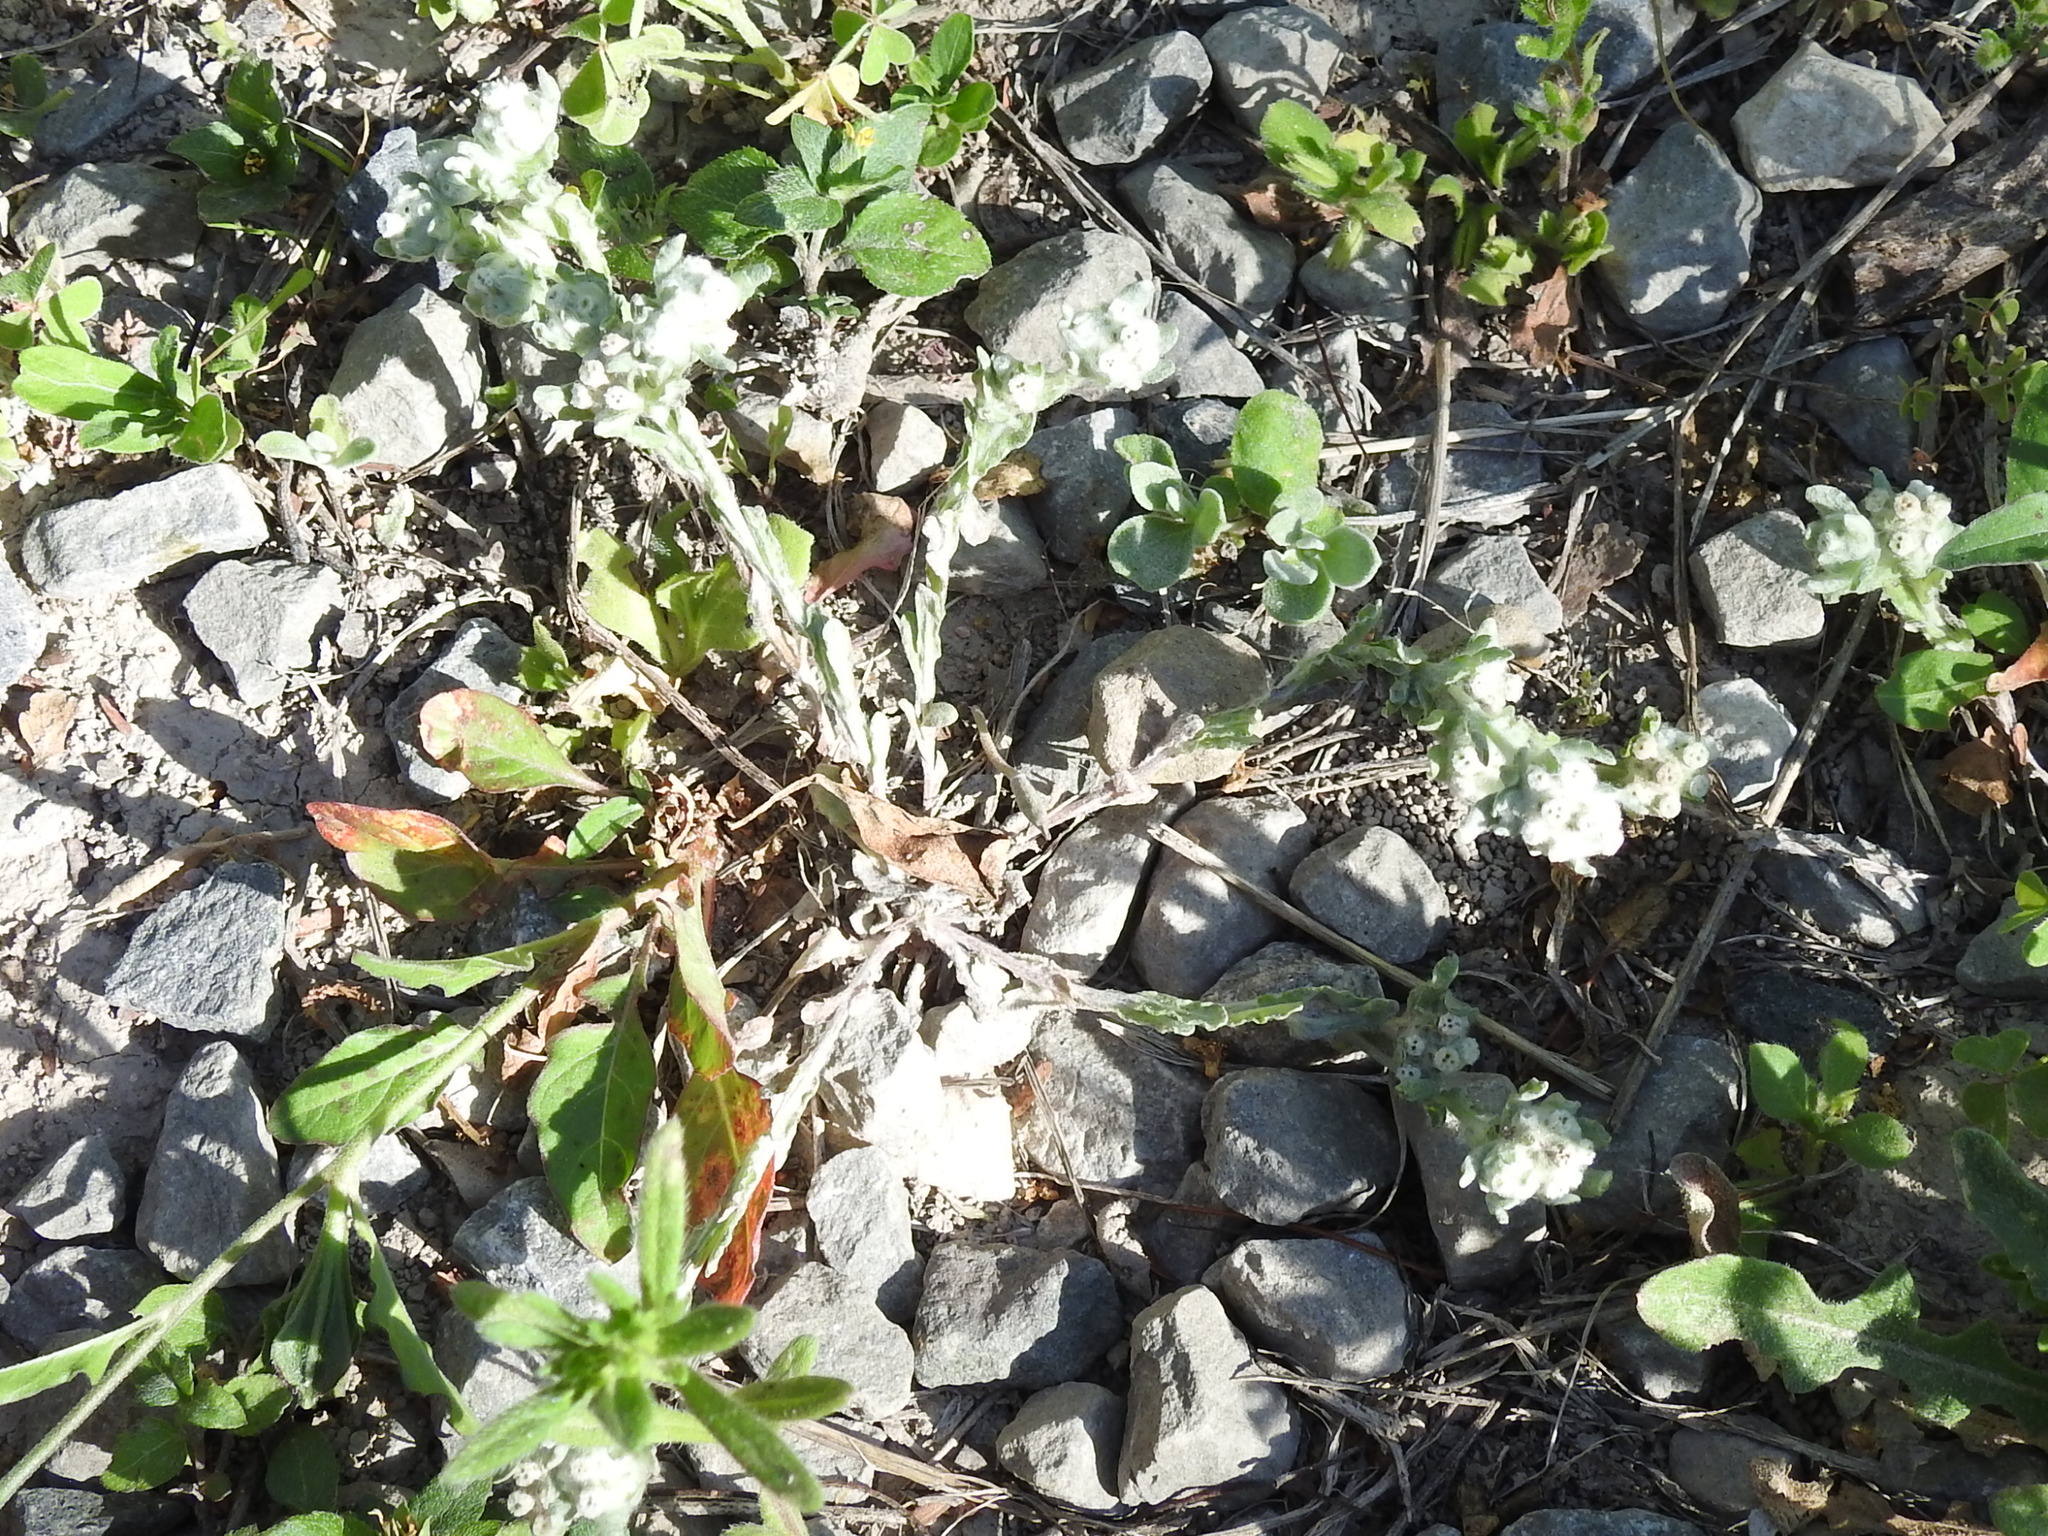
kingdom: Plantae
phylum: Tracheophyta
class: Magnoliopsida
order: Asterales
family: Asteraceae
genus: Diaperia
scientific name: Diaperia verna
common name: Many-stem rabbit-tobacco
